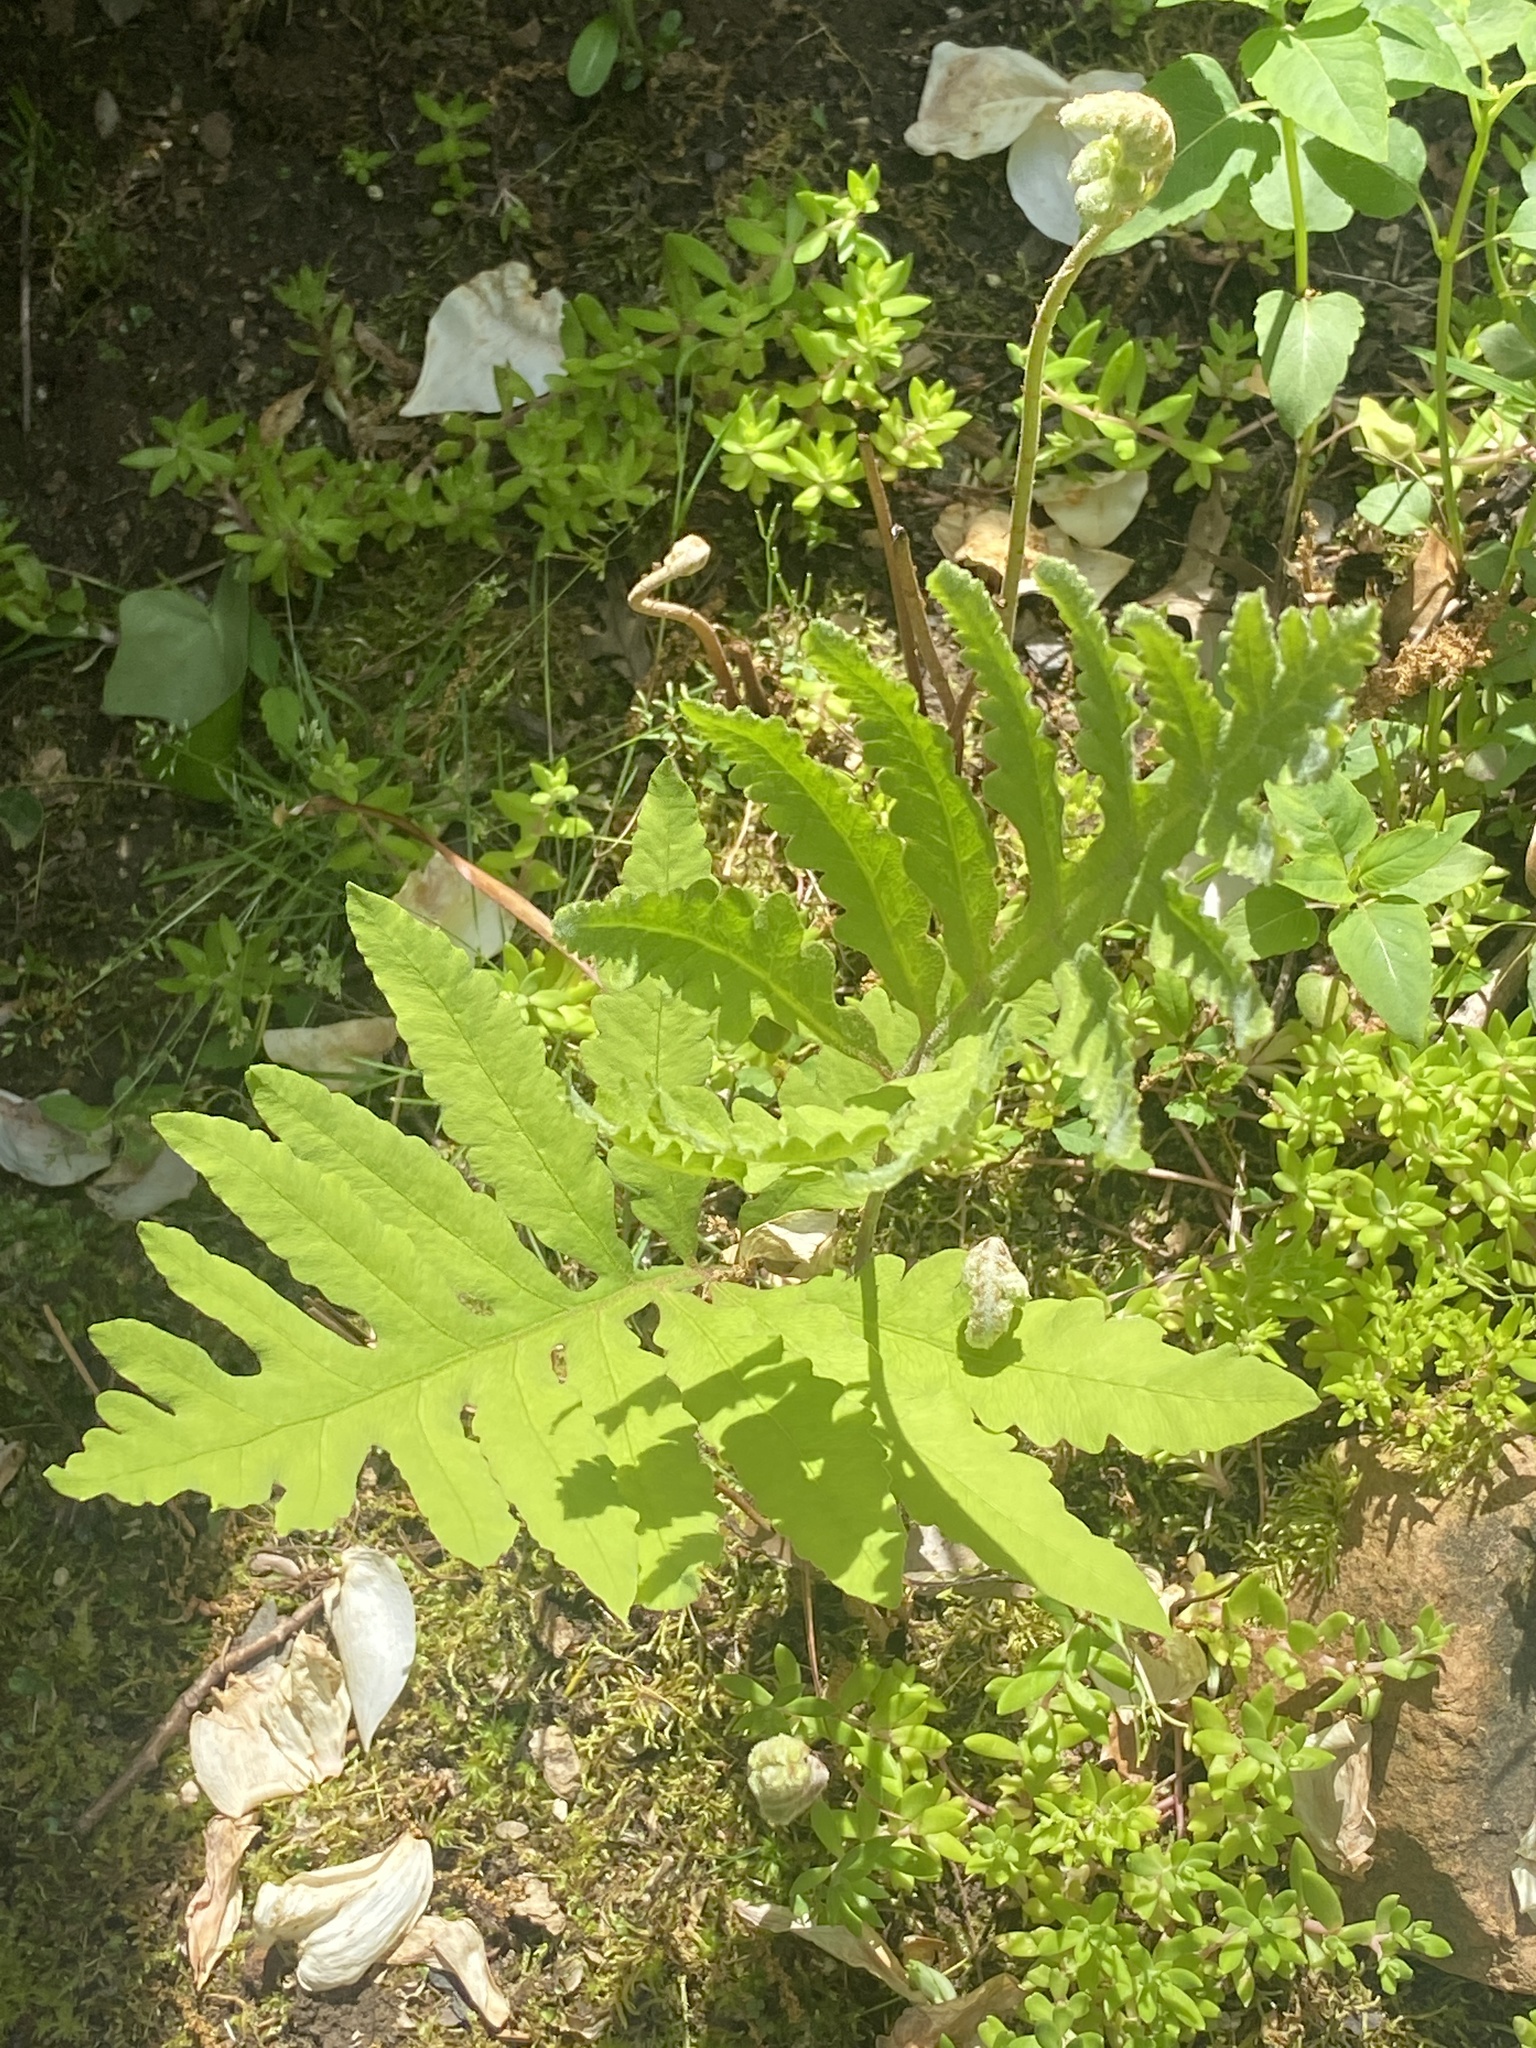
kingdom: Plantae
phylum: Tracheophyta
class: Polypodiopsida
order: Polypodiales
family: Onocleaceae
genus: Onoclea
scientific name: Onoclea sensibilis
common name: Sensitive fern
